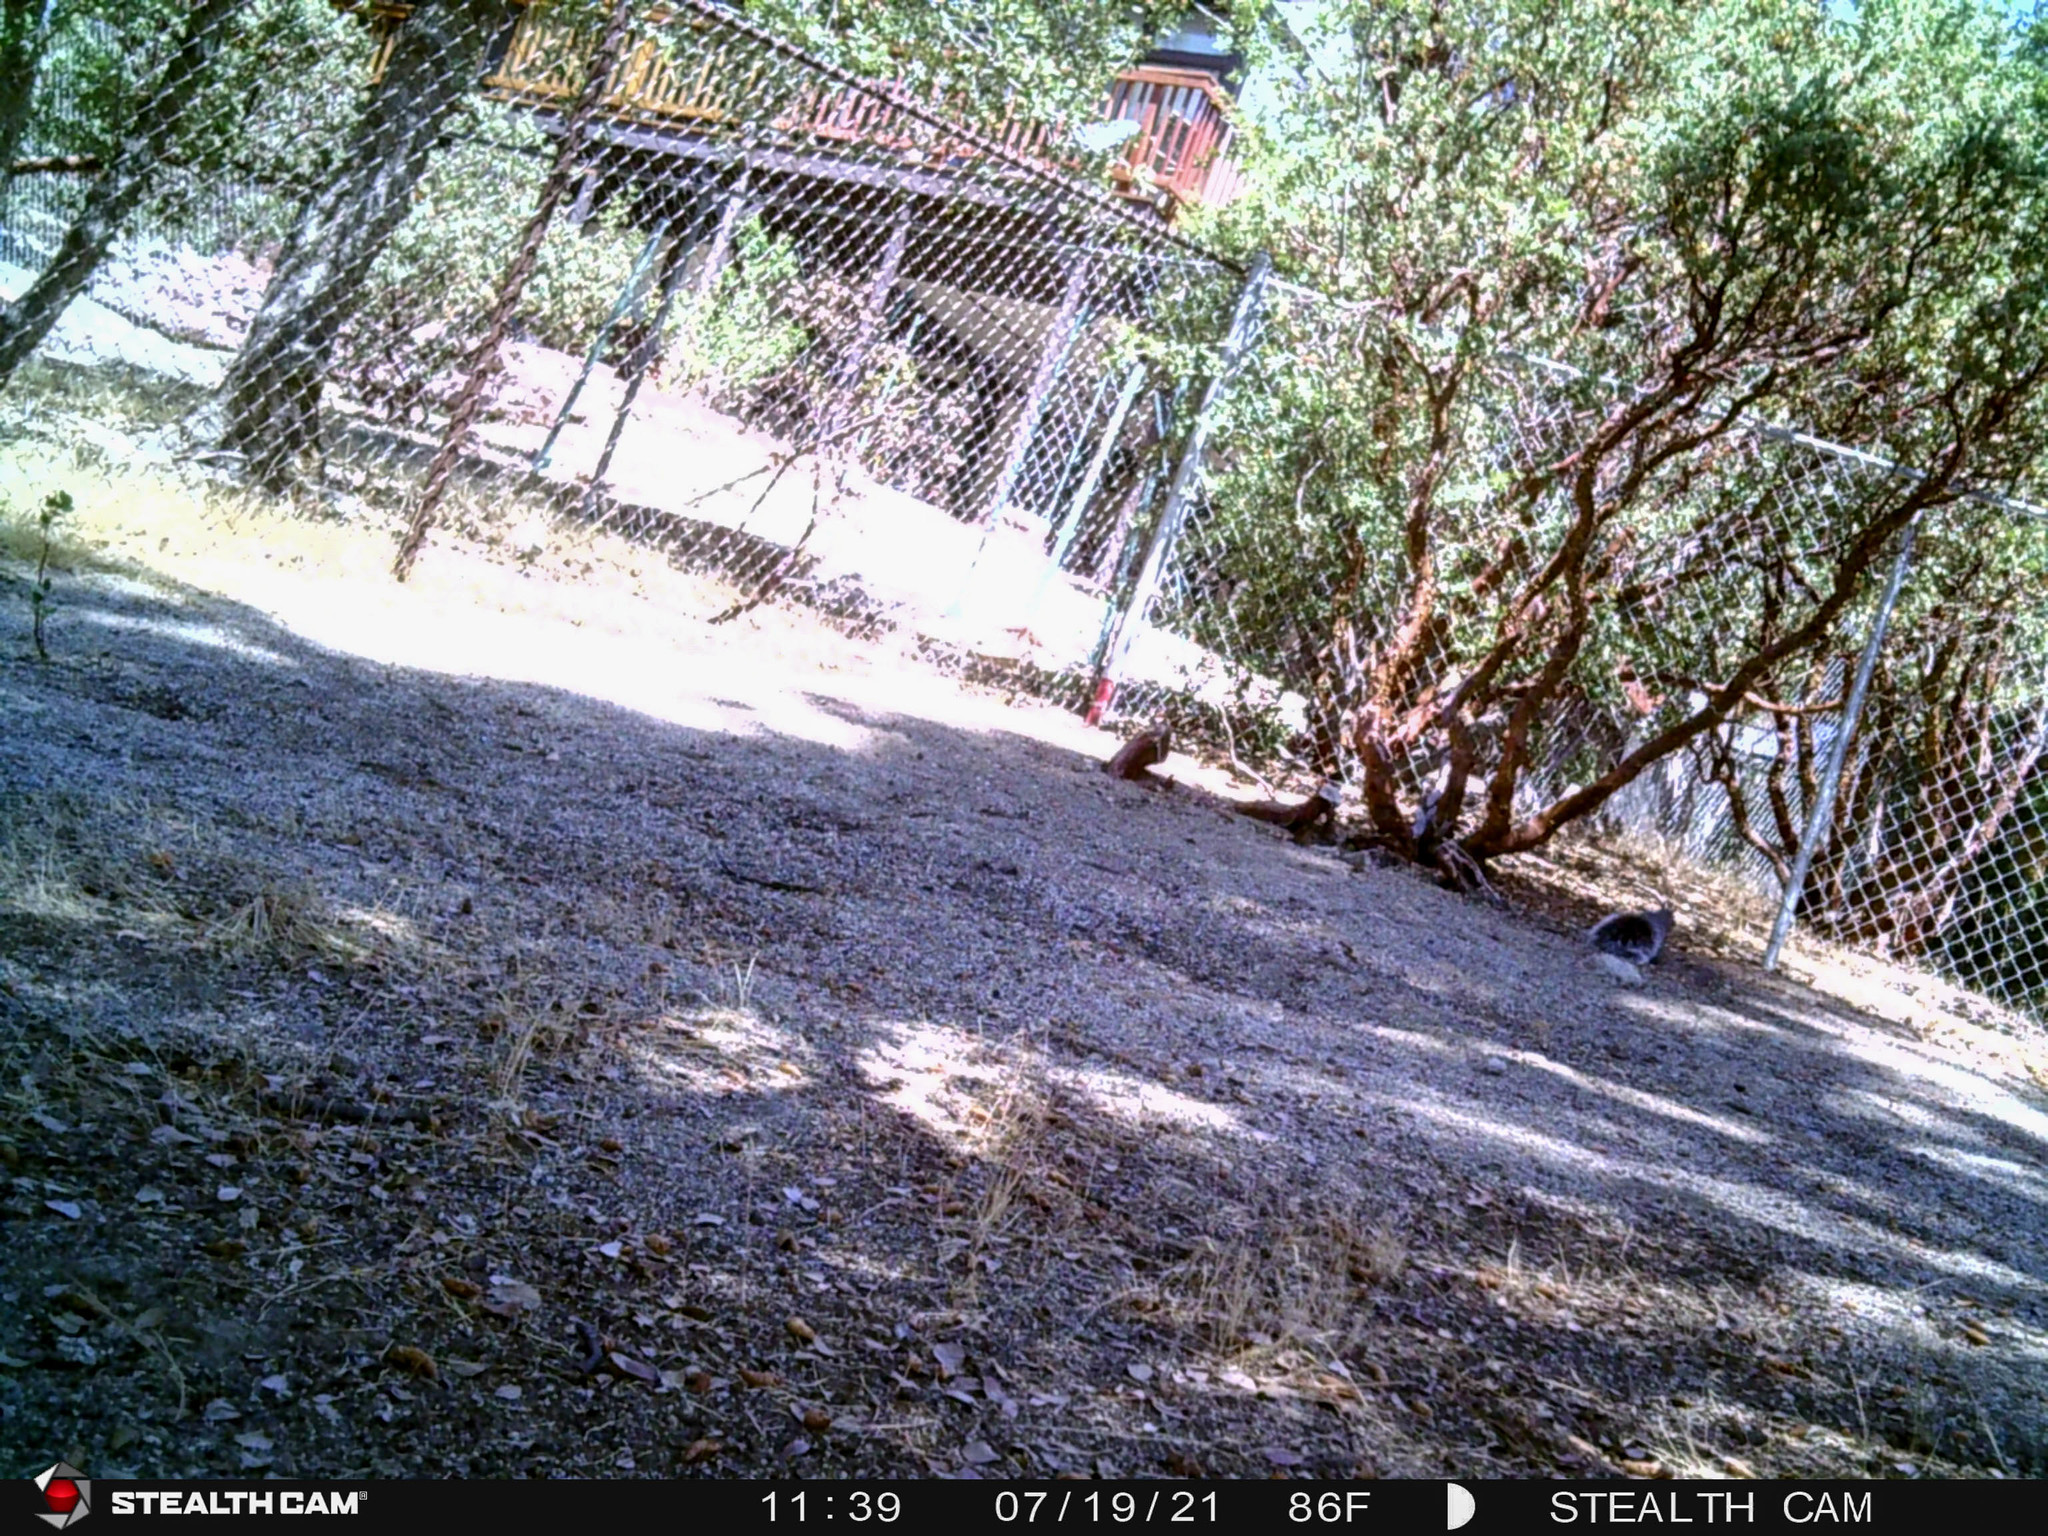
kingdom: Animalia
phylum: Chordata
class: Mammalia
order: Rodentia
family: Sciuridae
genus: Sciurus
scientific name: Sciurus griseus
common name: Western gray squirrel
